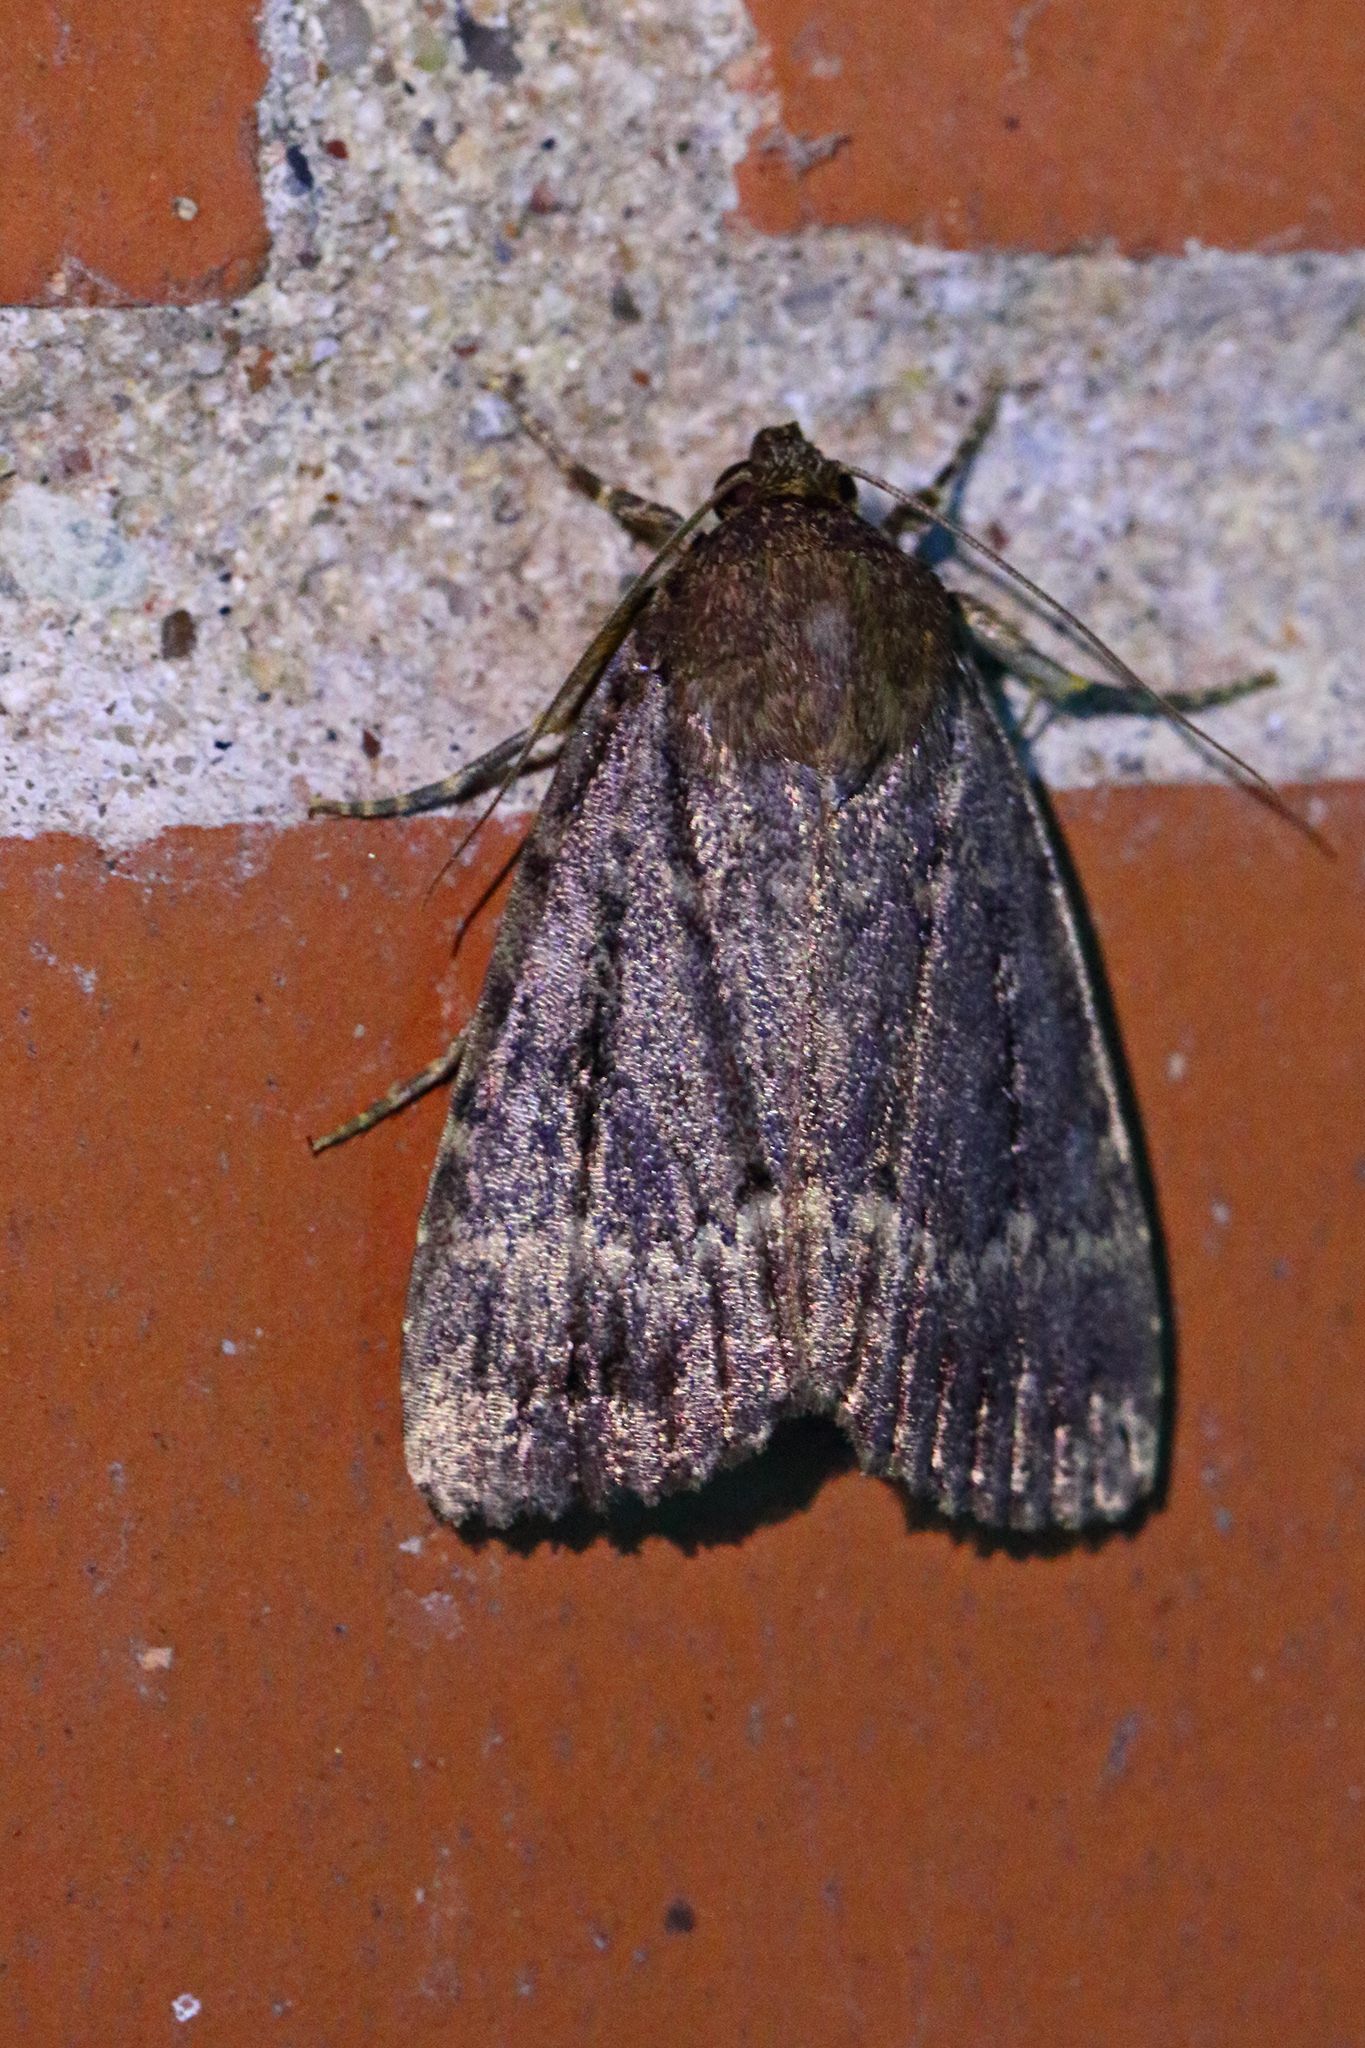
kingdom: Animalia
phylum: Arthropoda
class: Insecta
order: Lepidoptera
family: Noctuidae
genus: Amphipyra
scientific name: Amphipyra pyramidea
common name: Copper underwing
